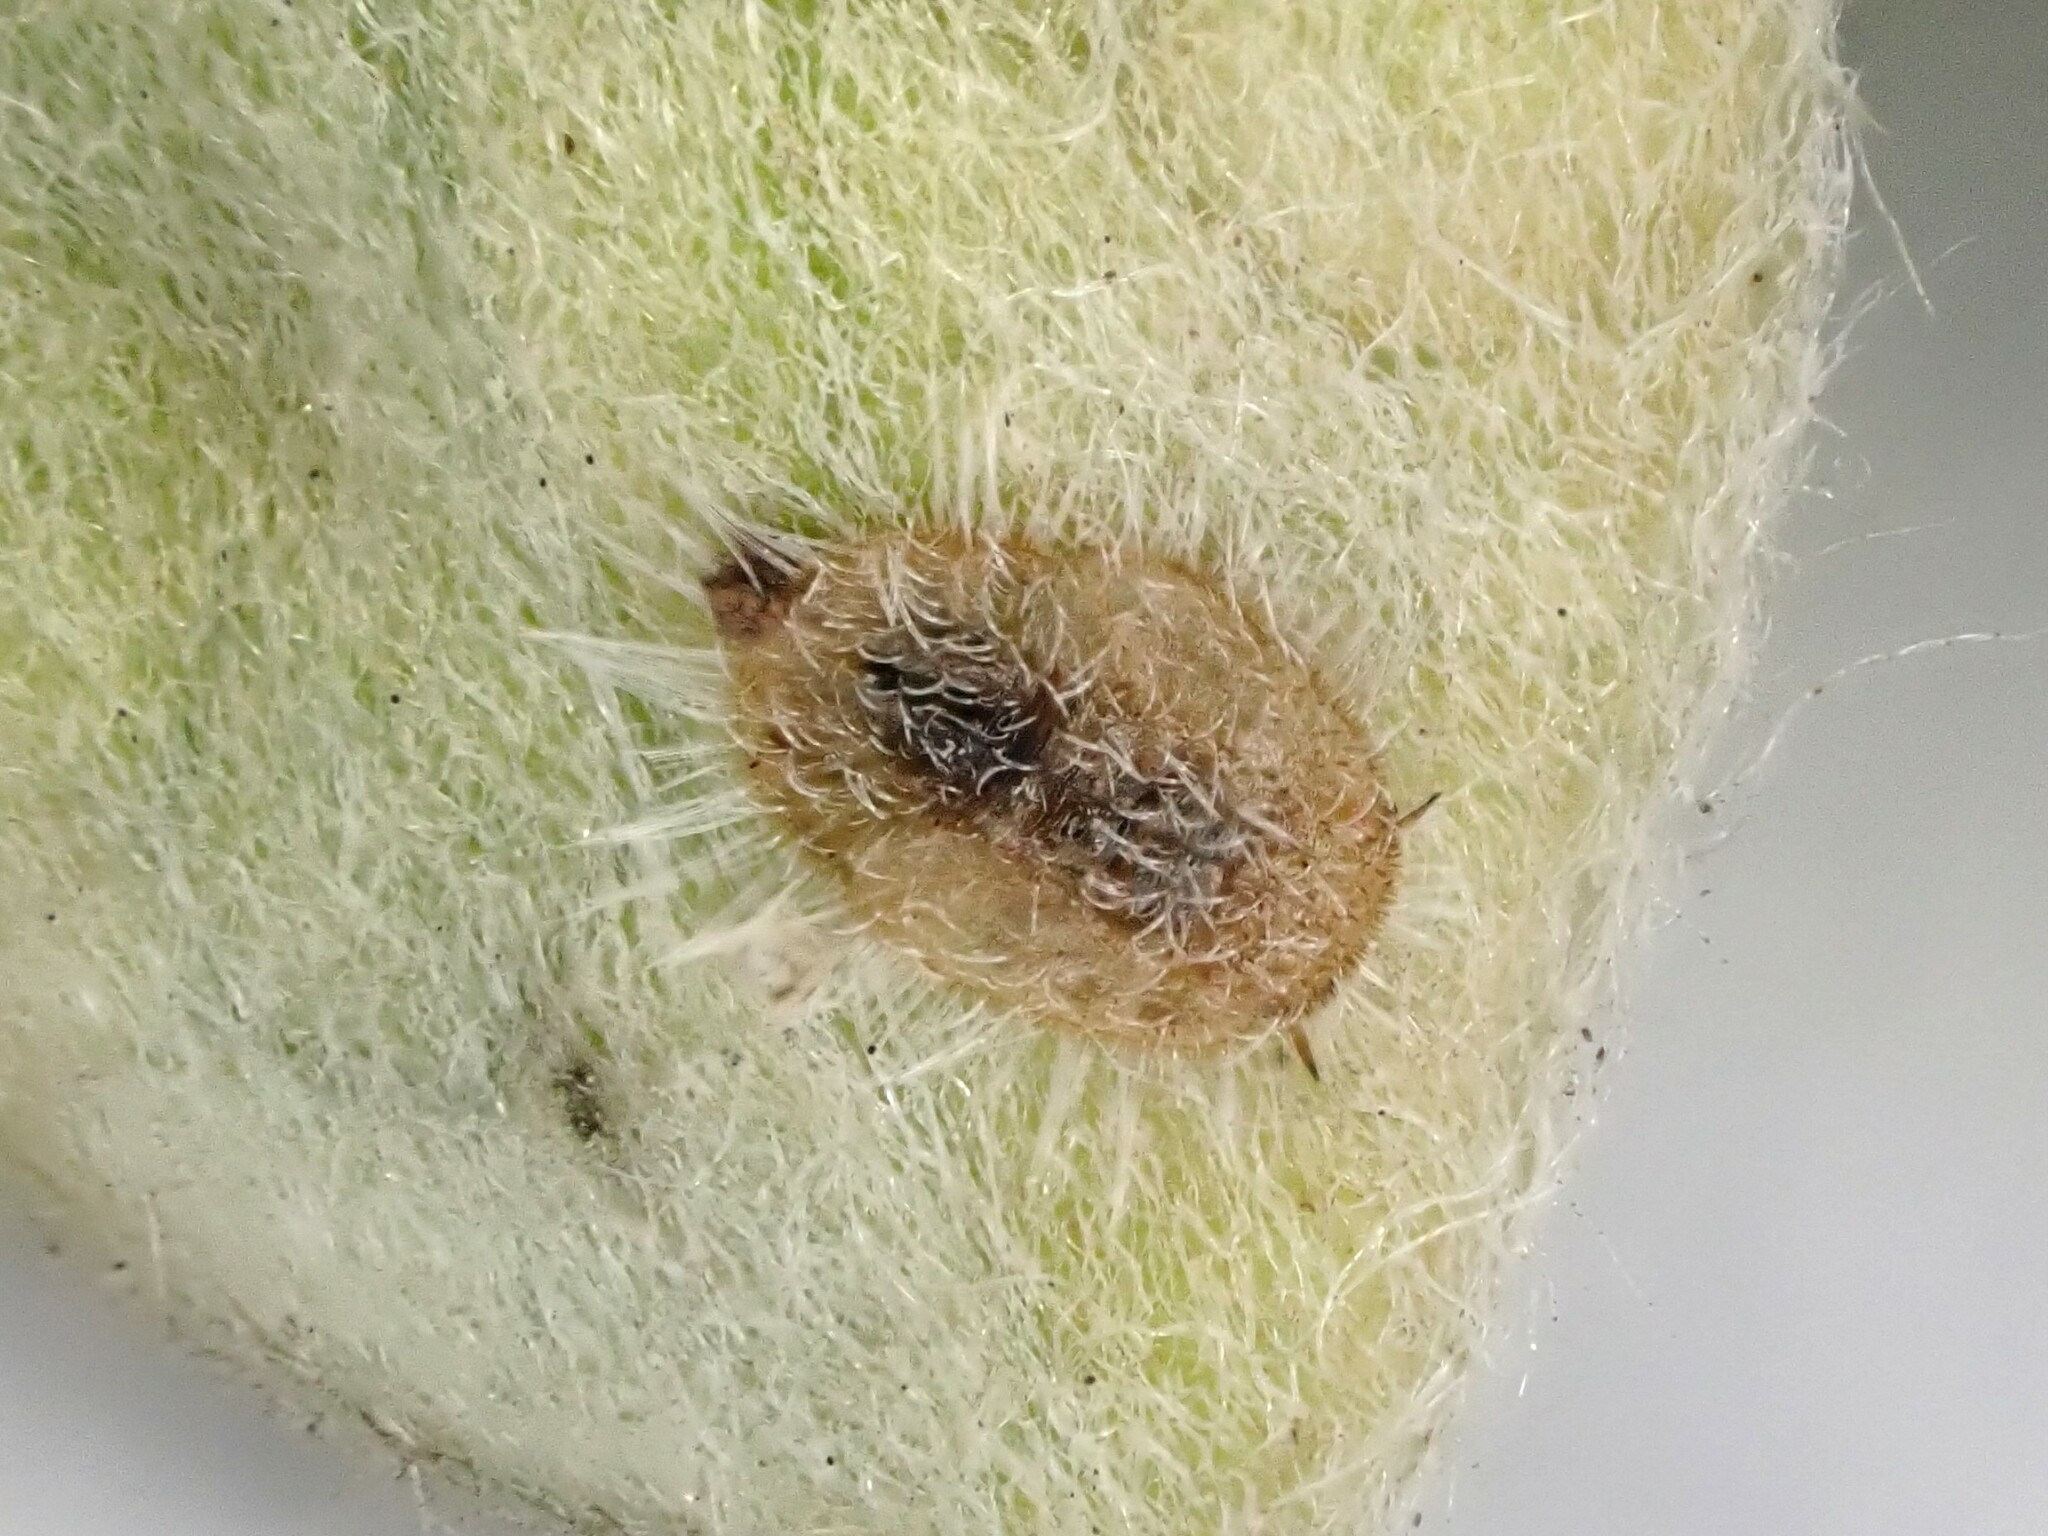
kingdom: Animalia
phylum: Arthropoda
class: Insecta
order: Hemiptera
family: Triozidae
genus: Powellia
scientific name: Powellia vitreoradiata
